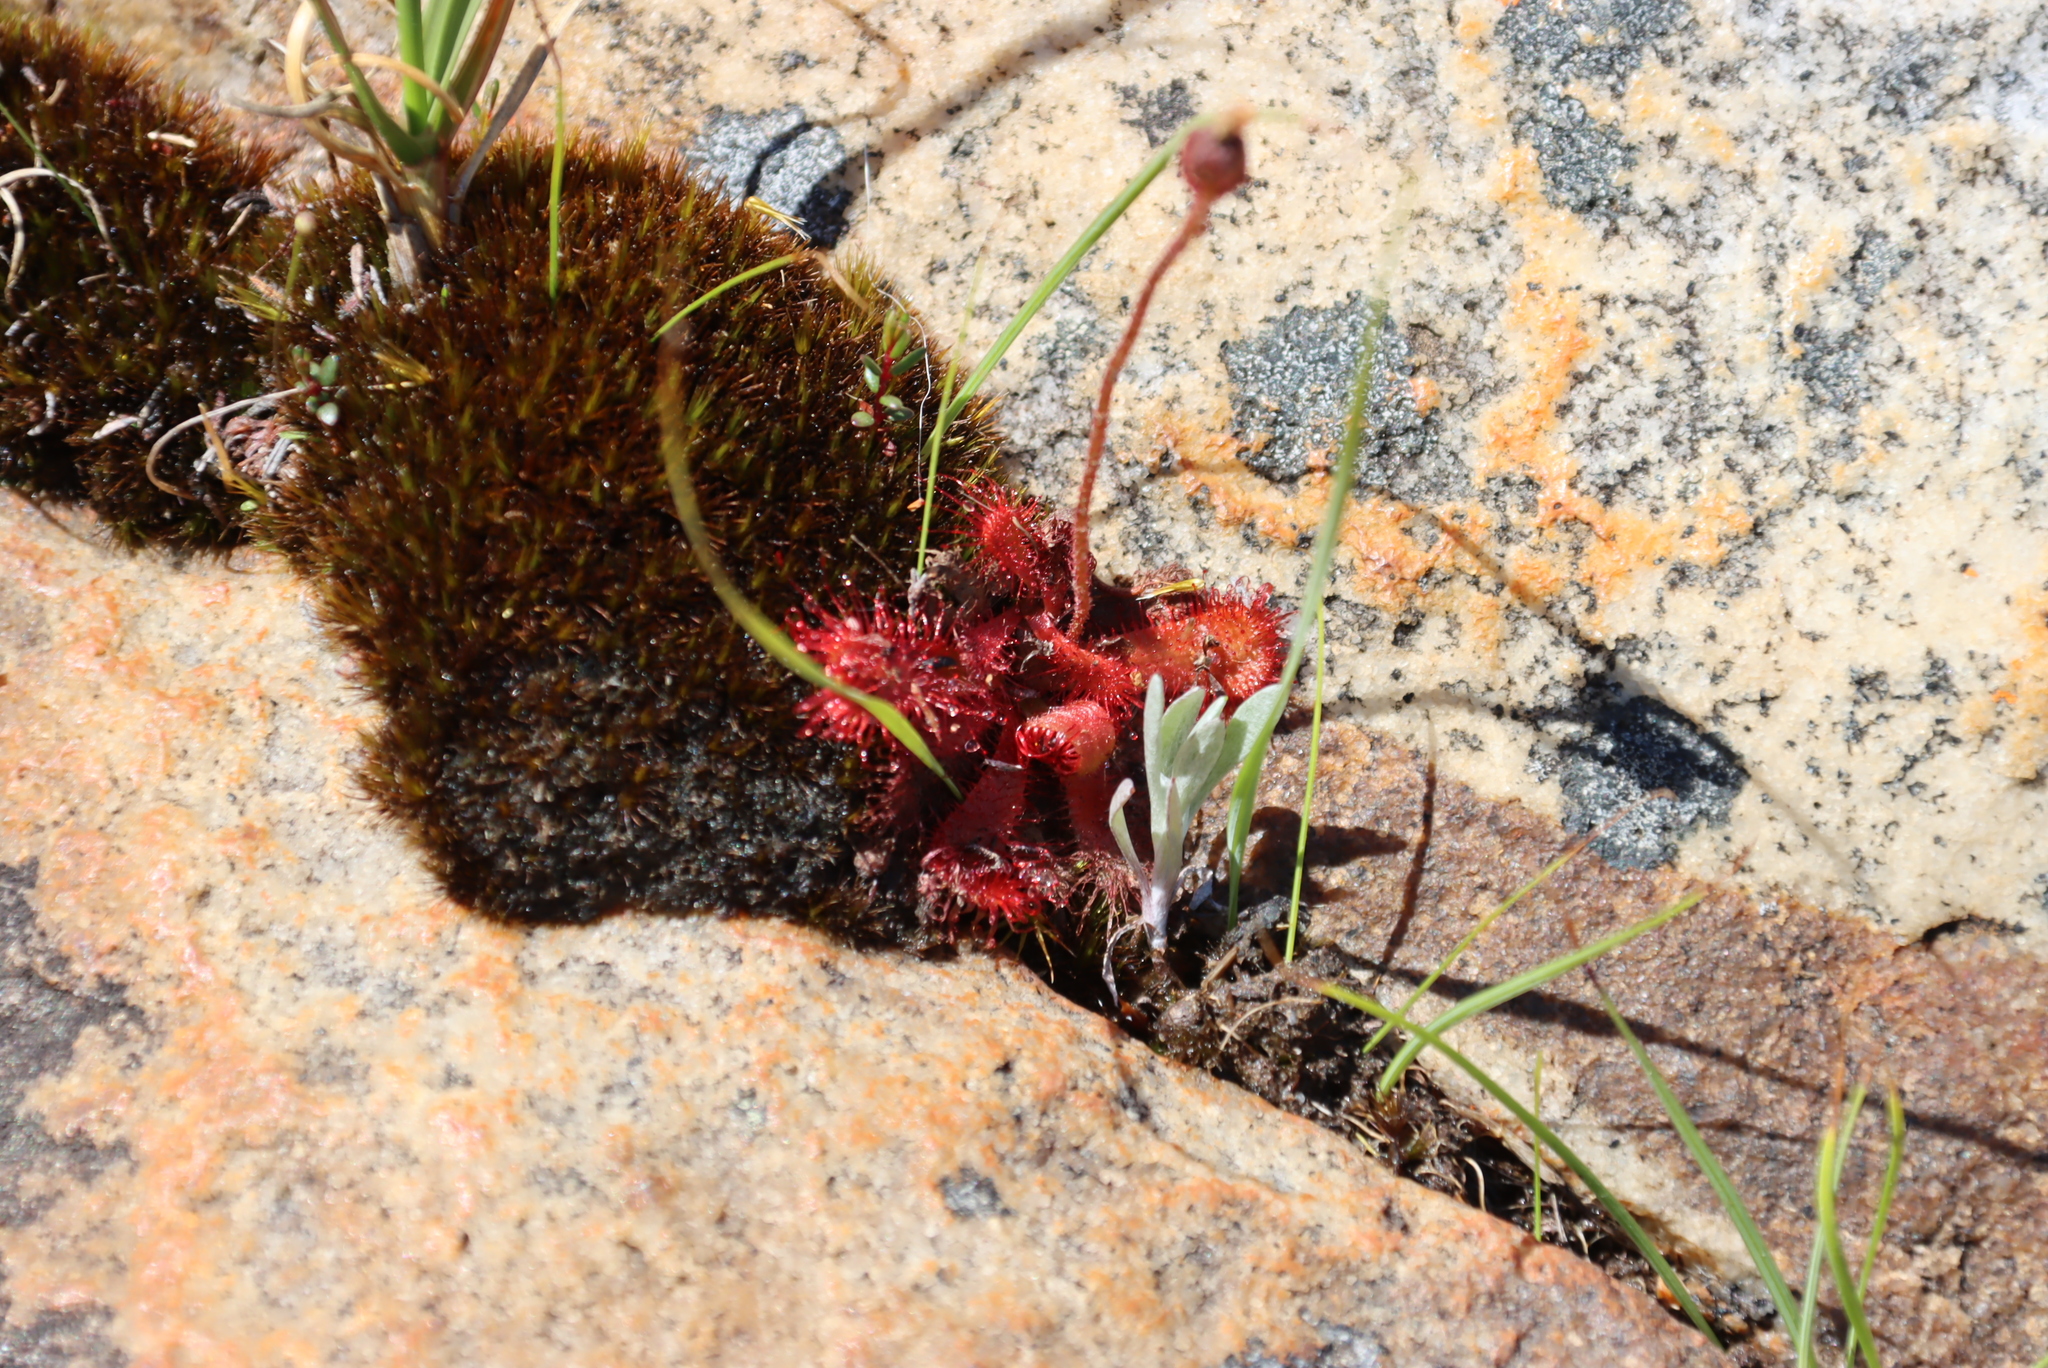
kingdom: Plantae
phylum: Tracheophyta
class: Magnoliopsida
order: Caryophyllales
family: Droseraceae
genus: Drosera
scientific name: Drosera trinervia
